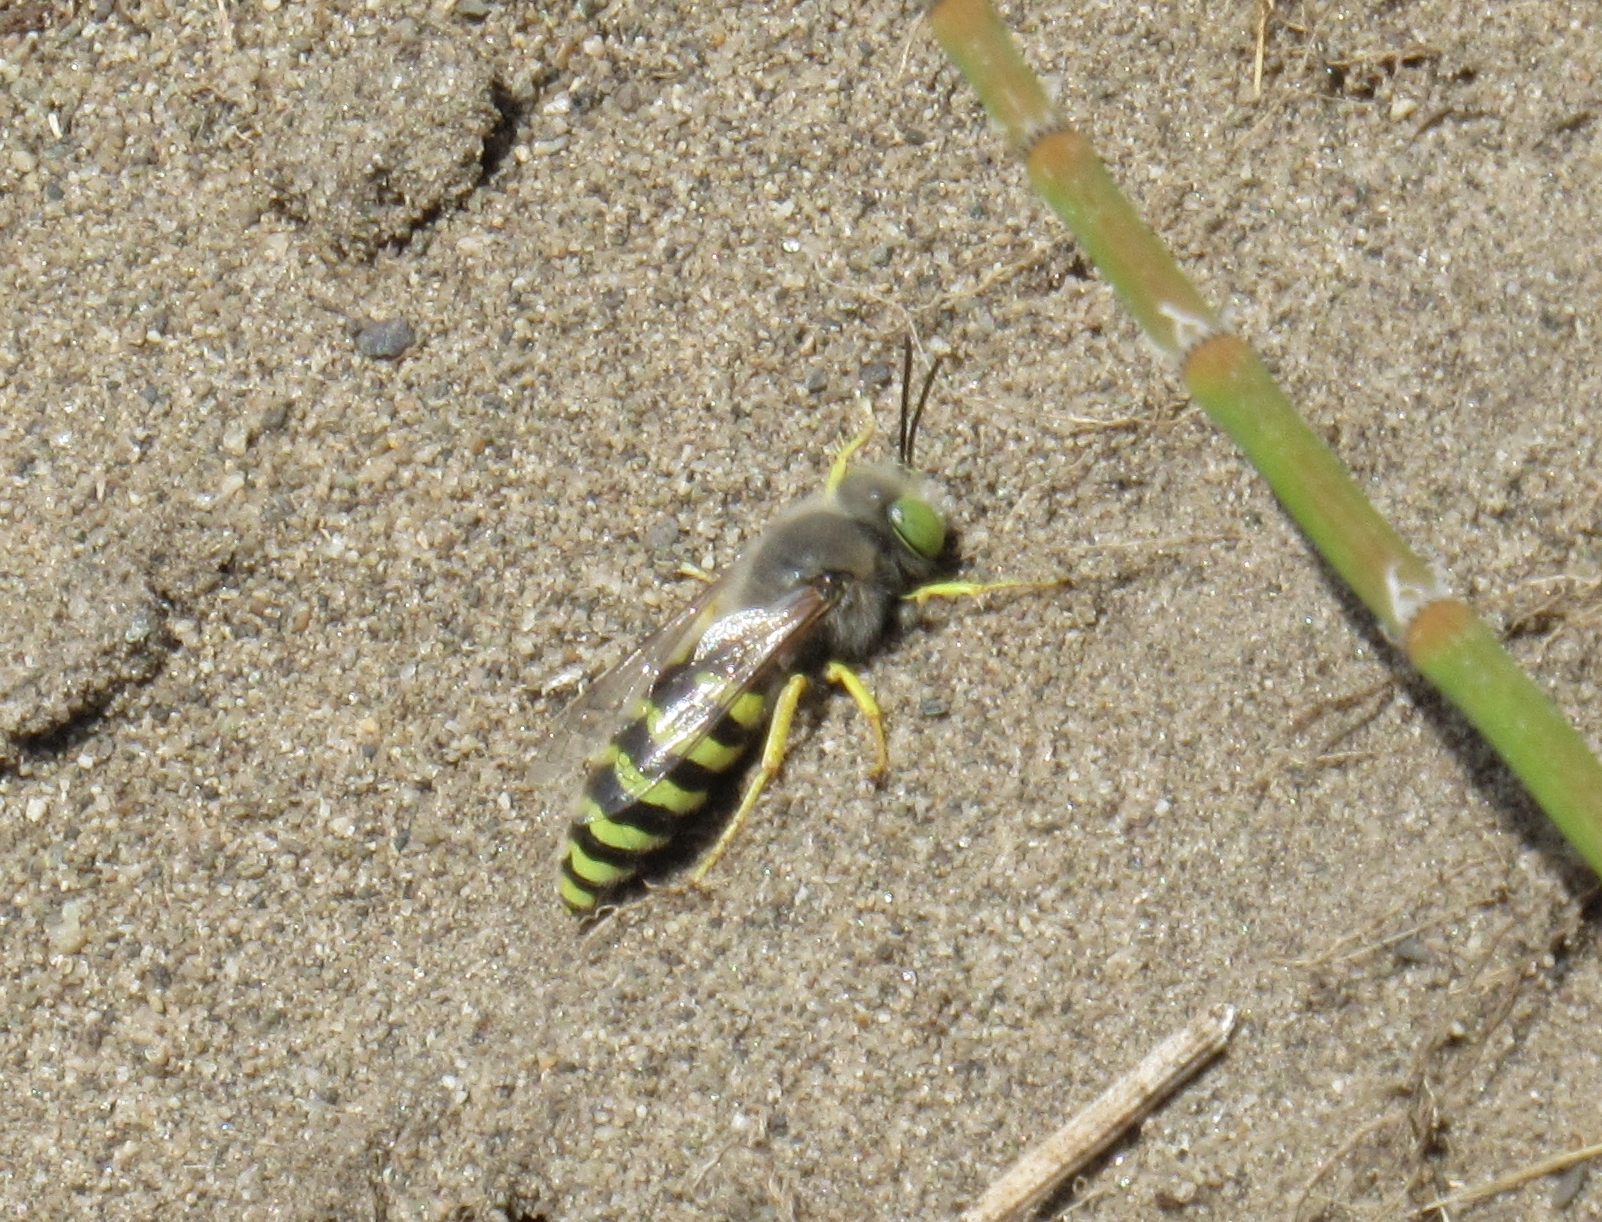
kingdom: Animalia
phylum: Arthropoda
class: Insecta
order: Hymenoptera
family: Crabronidae
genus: Bembix
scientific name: Bembix americana
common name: American sand wasp
